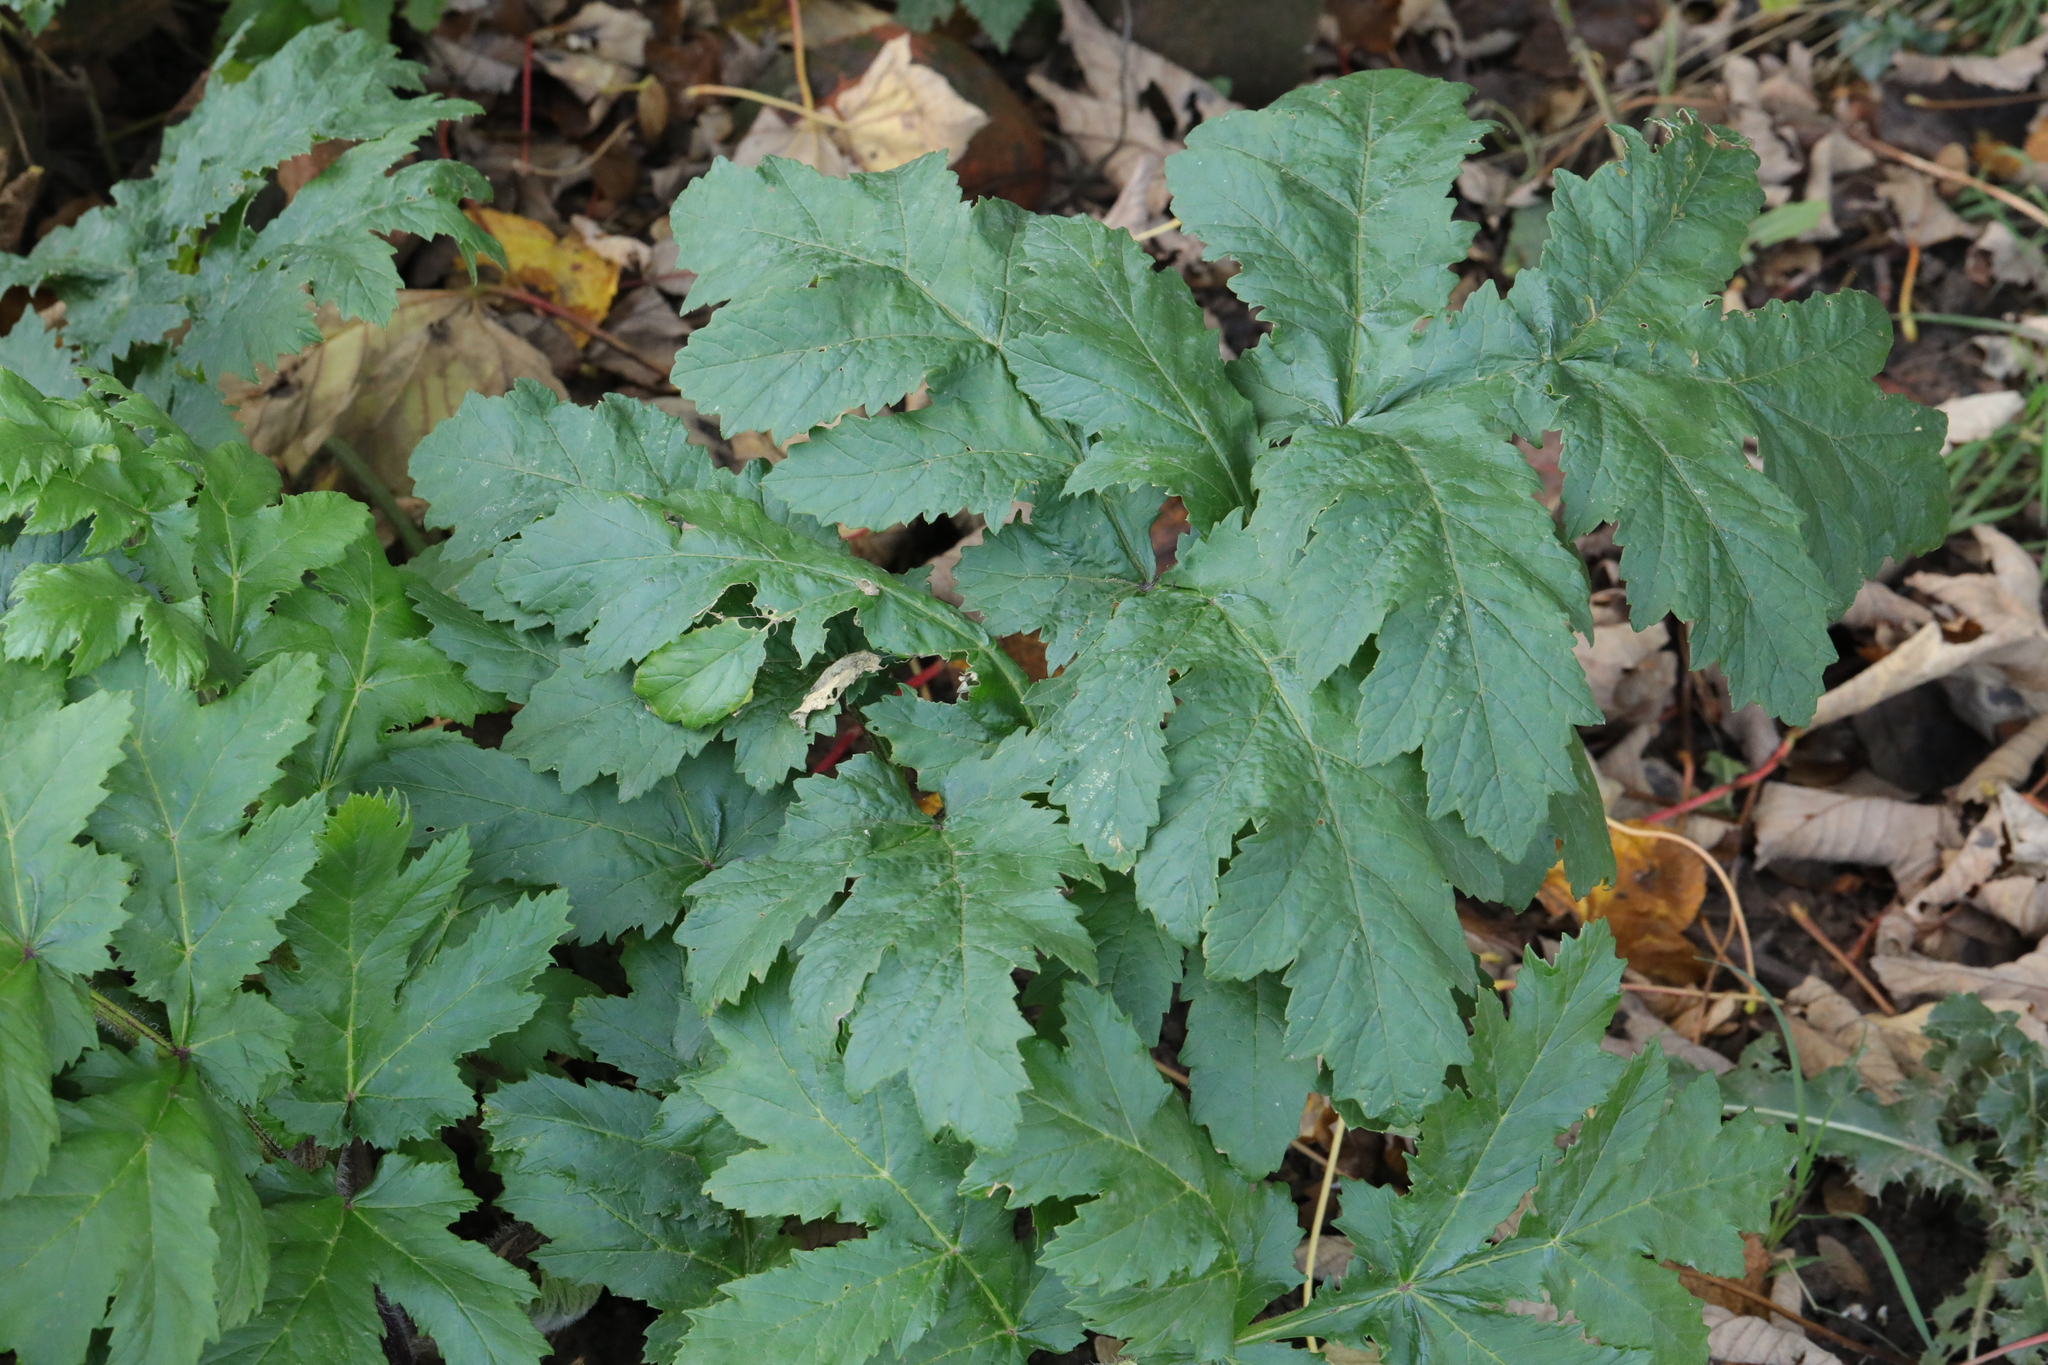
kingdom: Plantae
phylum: Tracheophyta
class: Magnoliopsida
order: Apiales
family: Apiaceae
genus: Heracleum
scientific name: Heracleum mantegazzianum
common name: Giant hogweed
